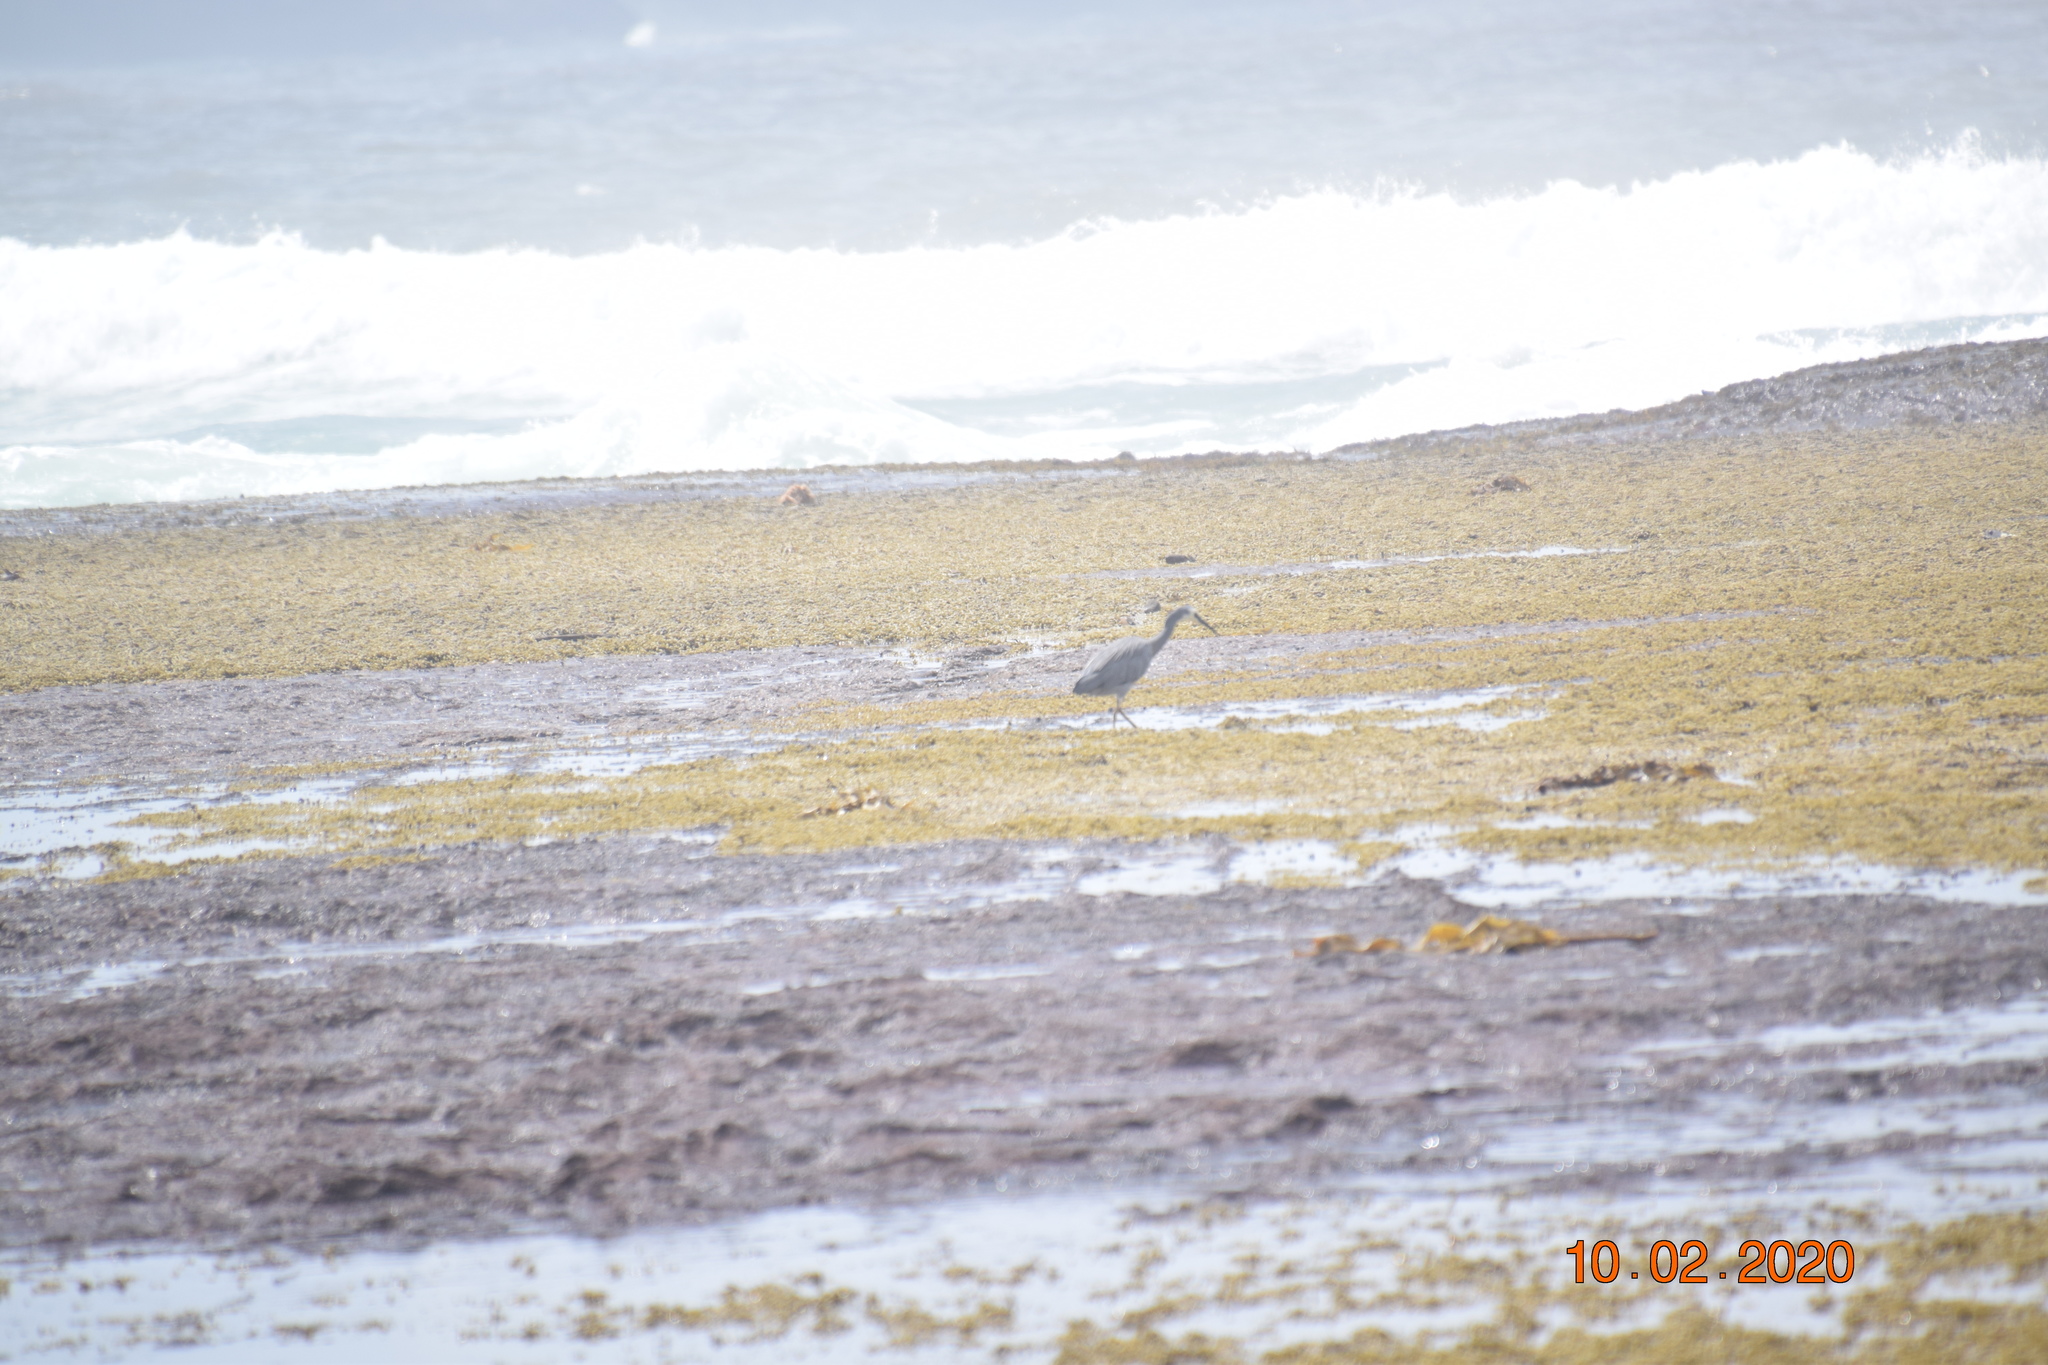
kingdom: Animalia
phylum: Chordata
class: Aves
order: Pelecaniformes
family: Ardeidae
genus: Egretta
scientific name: Egretta novaehollandiae
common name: White-faced heron
